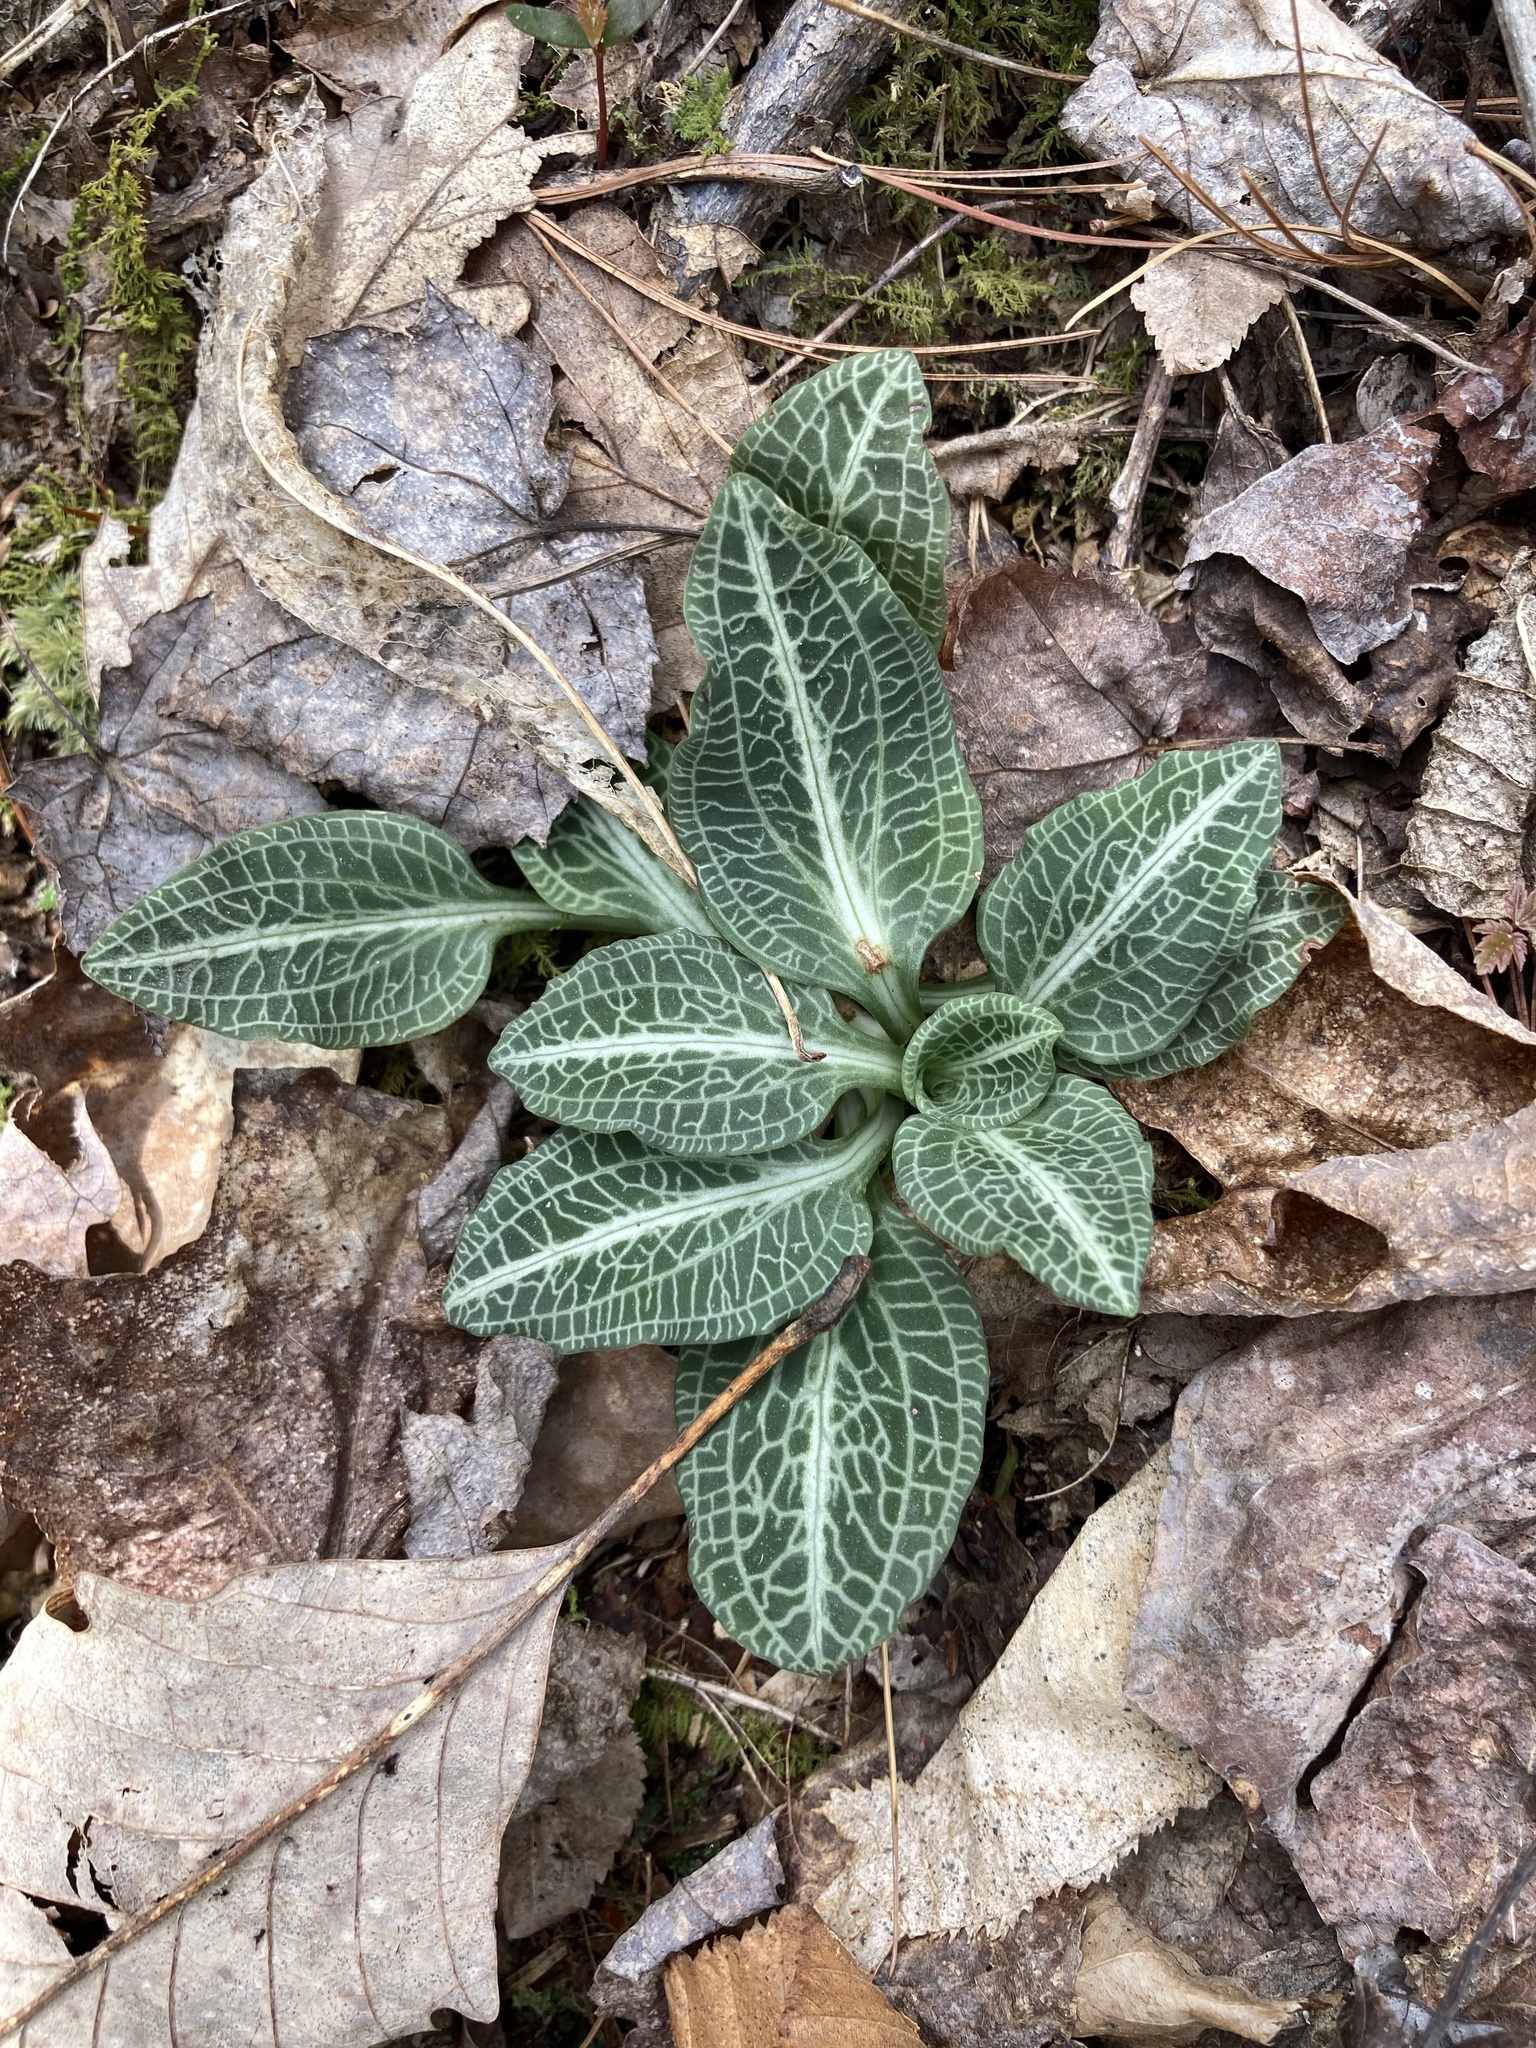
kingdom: Plantae
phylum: Tracheophyta
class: Liliopsida
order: Asparagales
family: Orchidaceae
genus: Goodyera
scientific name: Goodyera pubescens
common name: Downy rattlesnake-plantain
